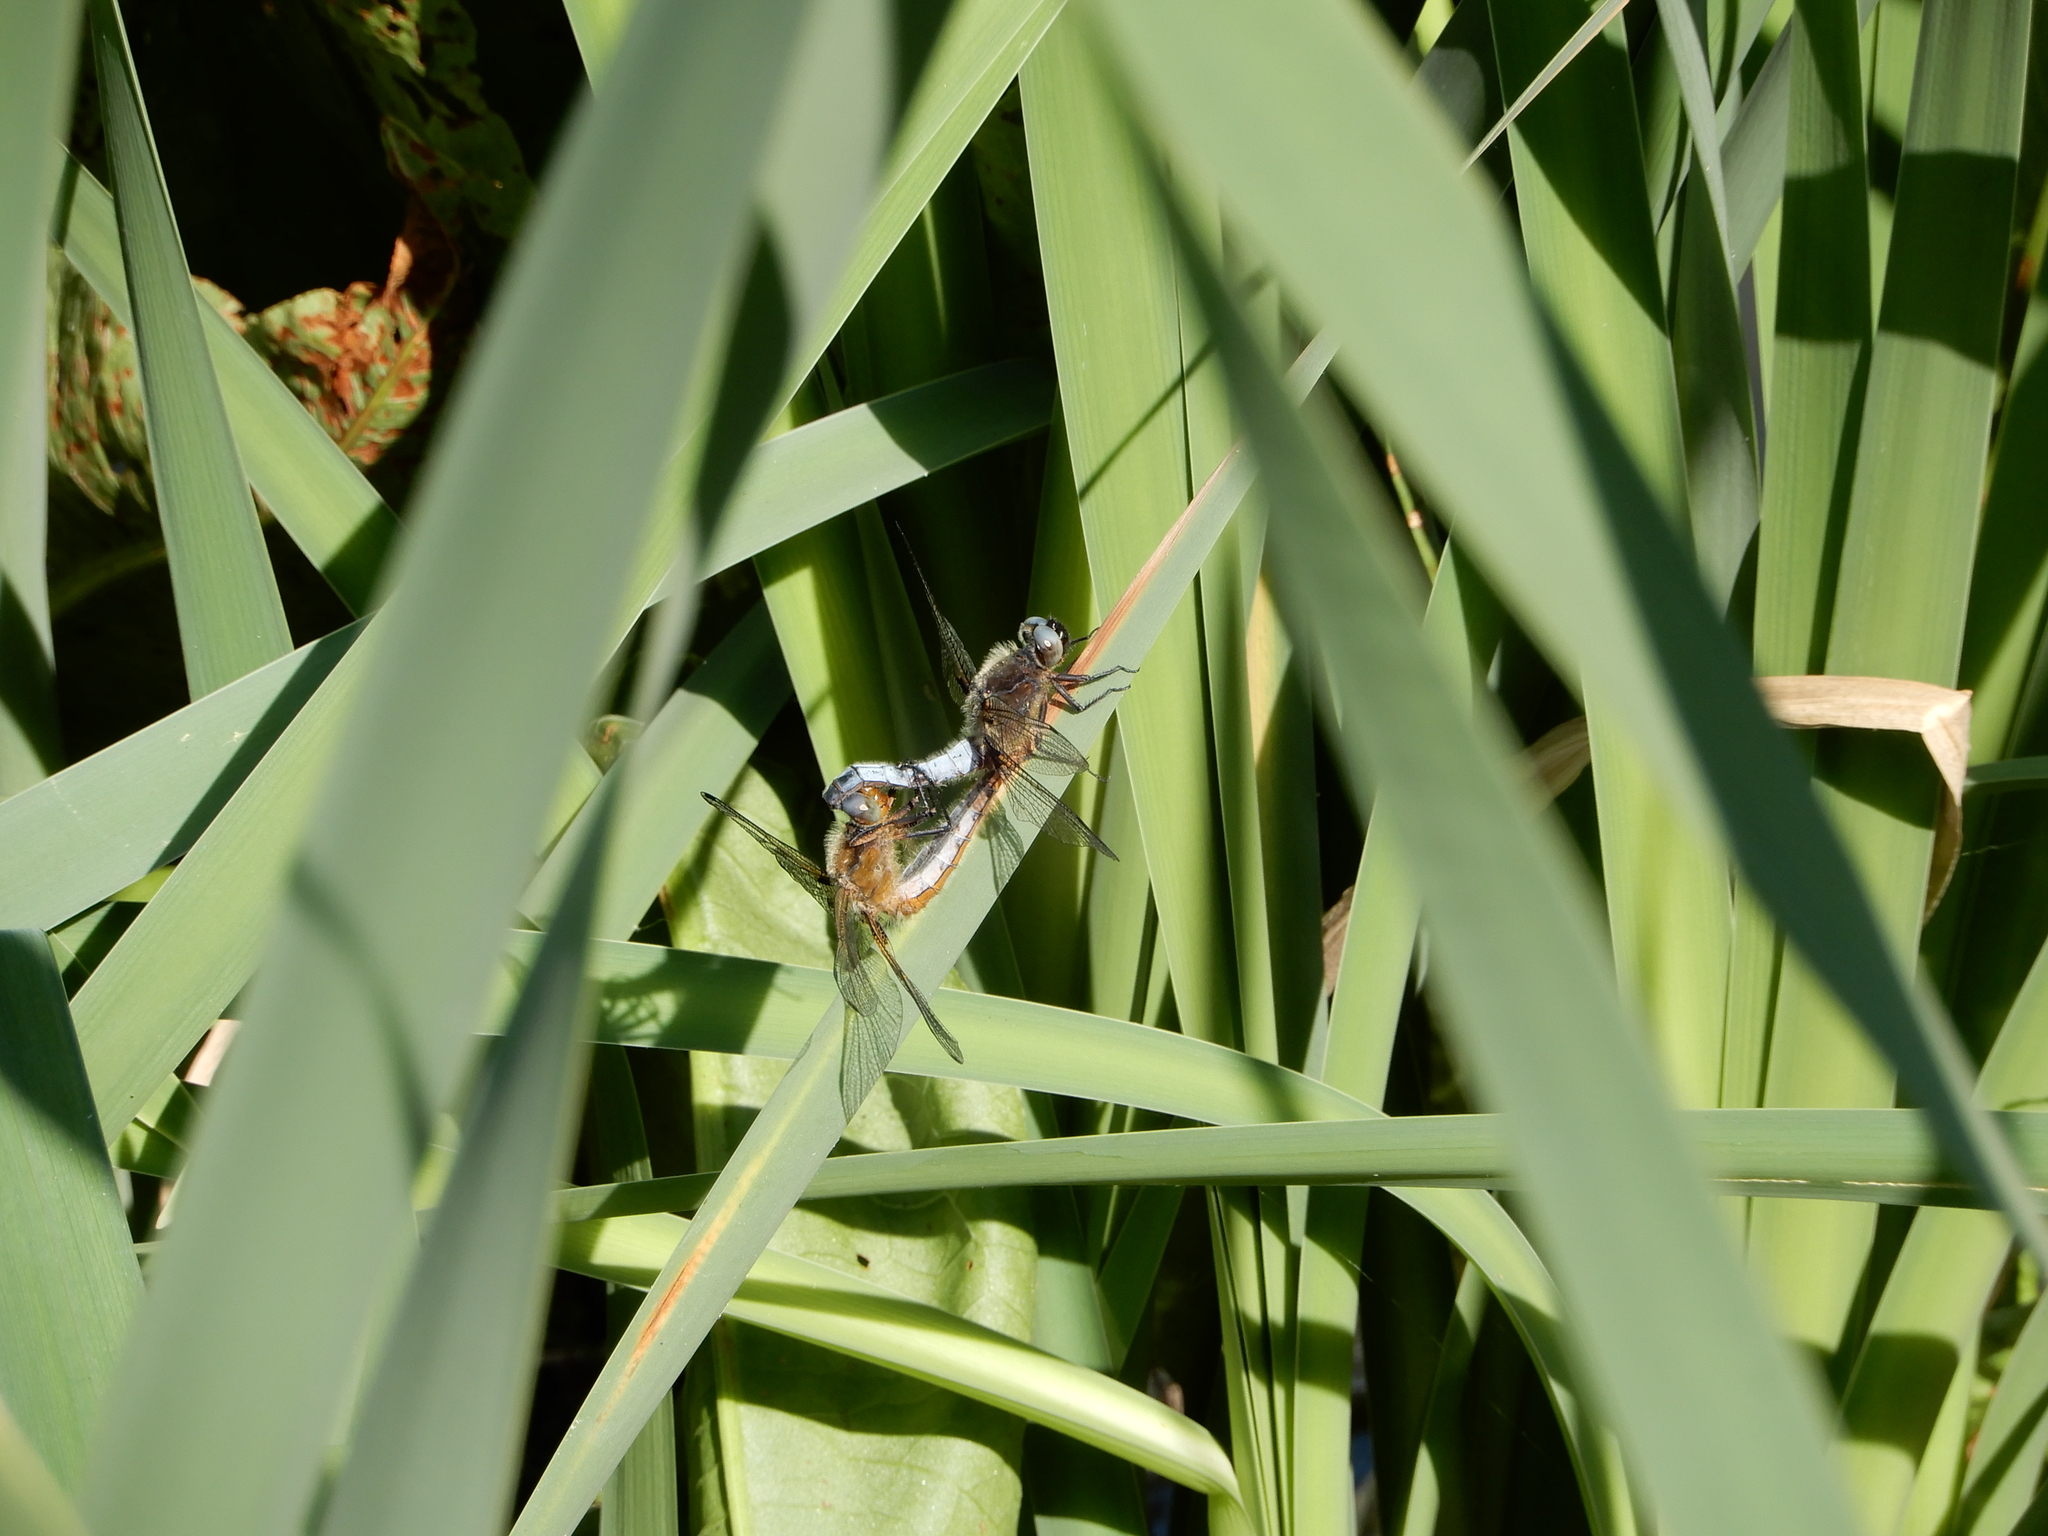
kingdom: Animalia
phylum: Arthropoda
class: Insecta
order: Odonata
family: Libellulidae
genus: Libellula
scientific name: Libellula fulva
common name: Blue chaser
